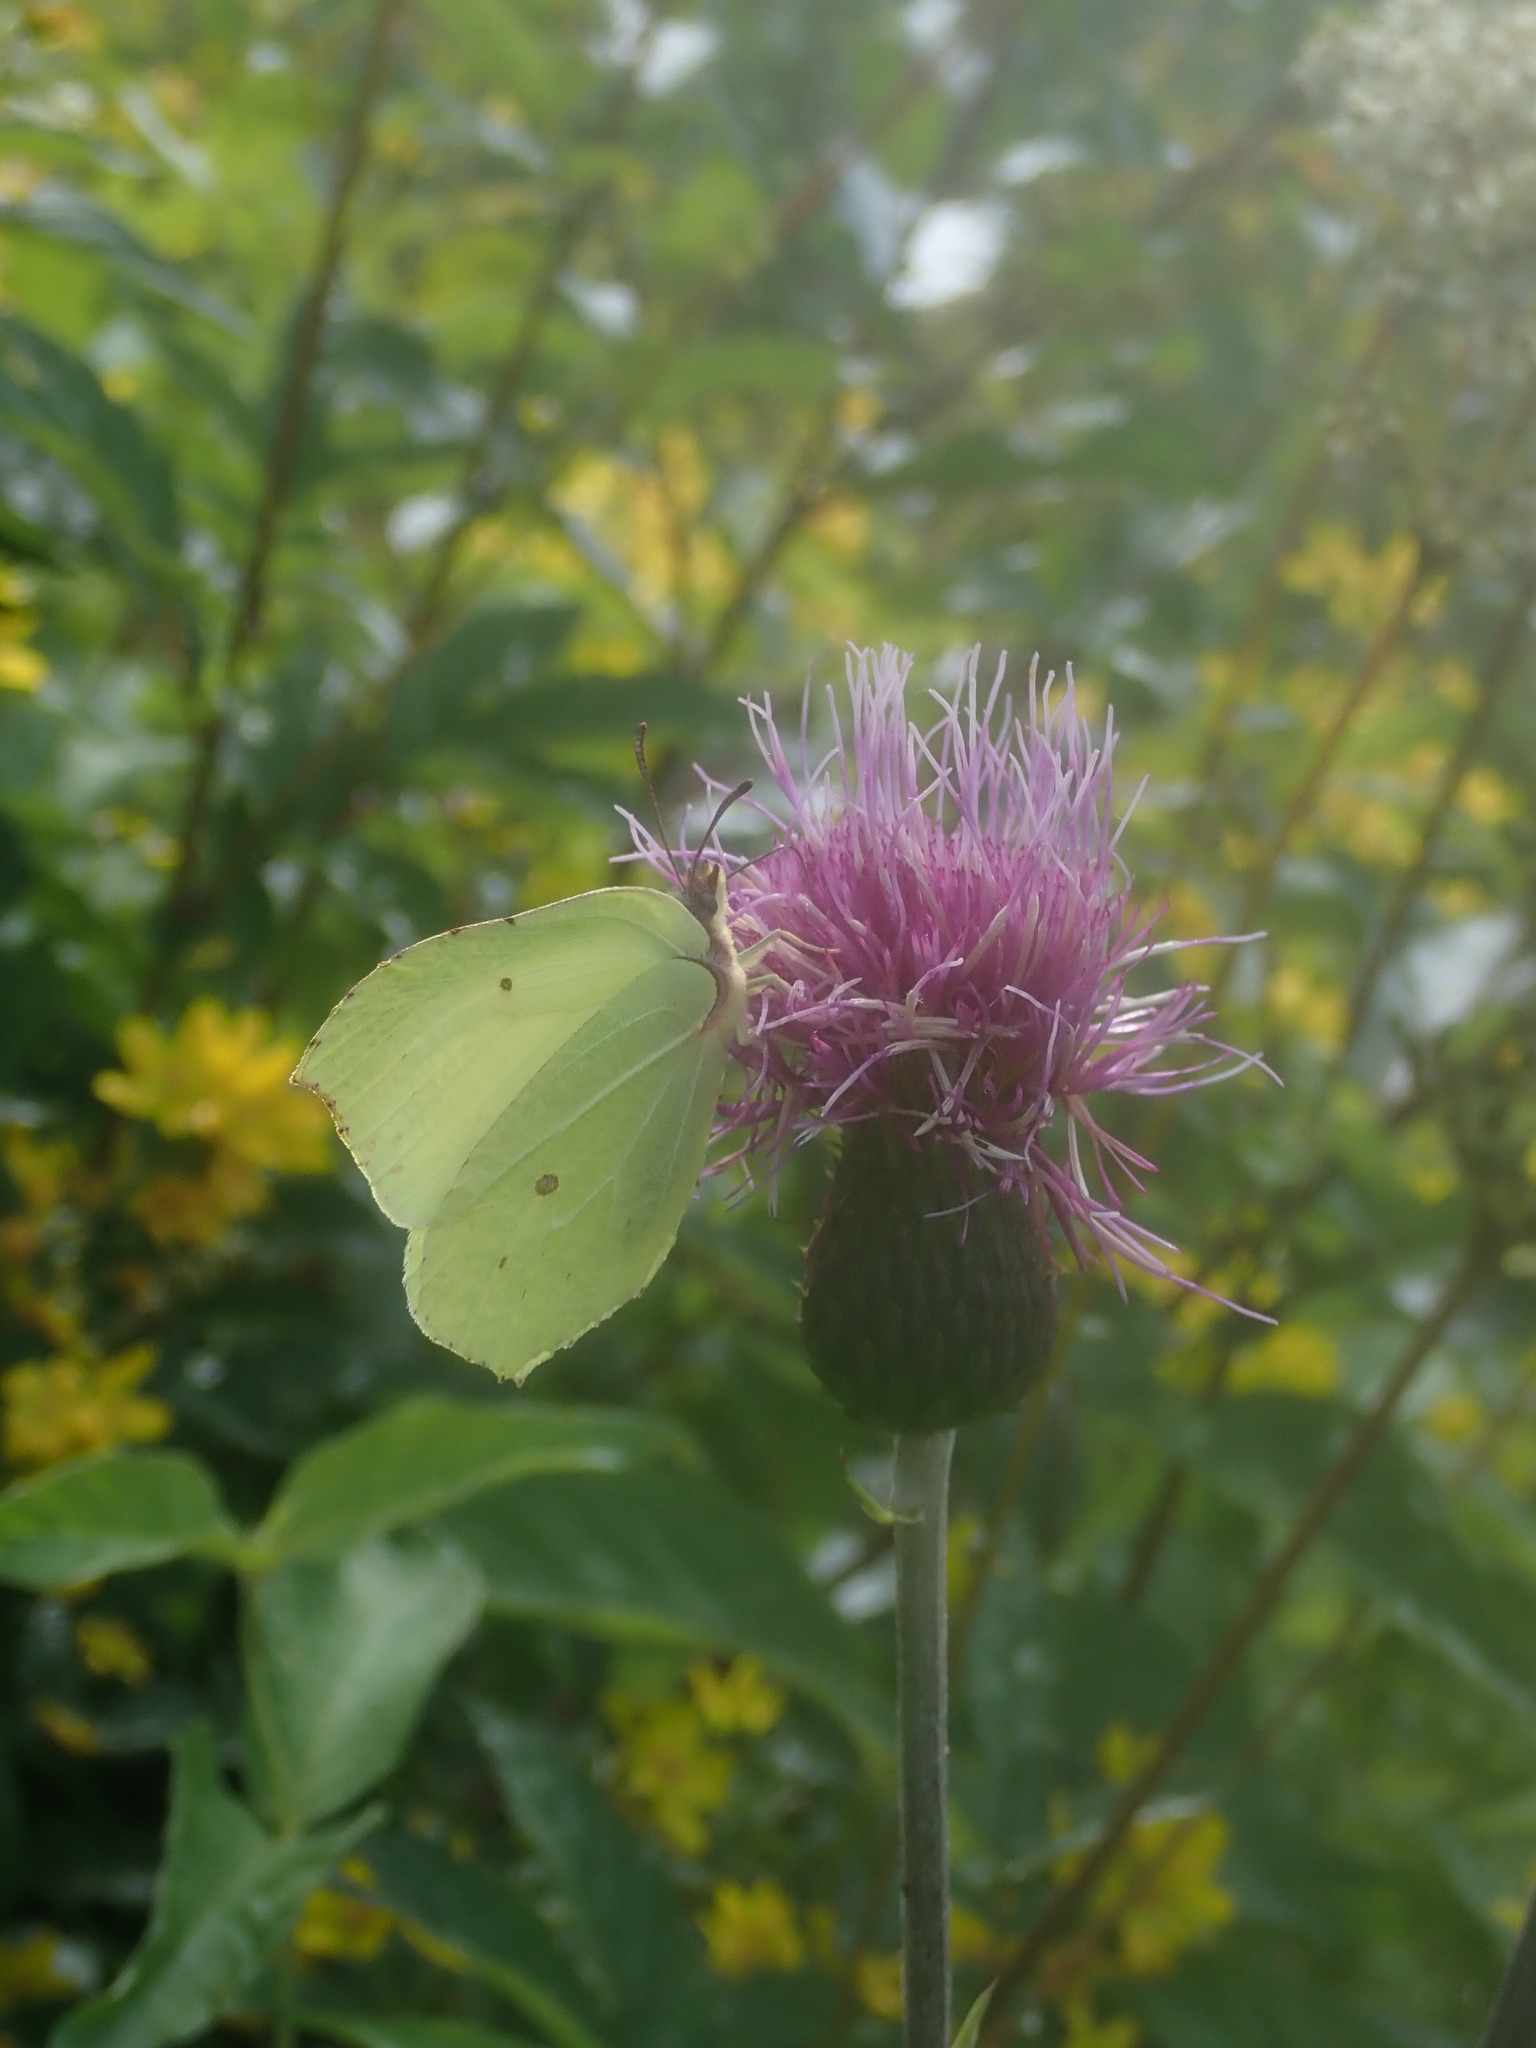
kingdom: Animalia
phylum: Arthropoda
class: Insecta
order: Lepidoptera
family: Pieridae
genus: Gonepteryx
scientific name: Gonepteryx rhamni
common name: Brimstone
